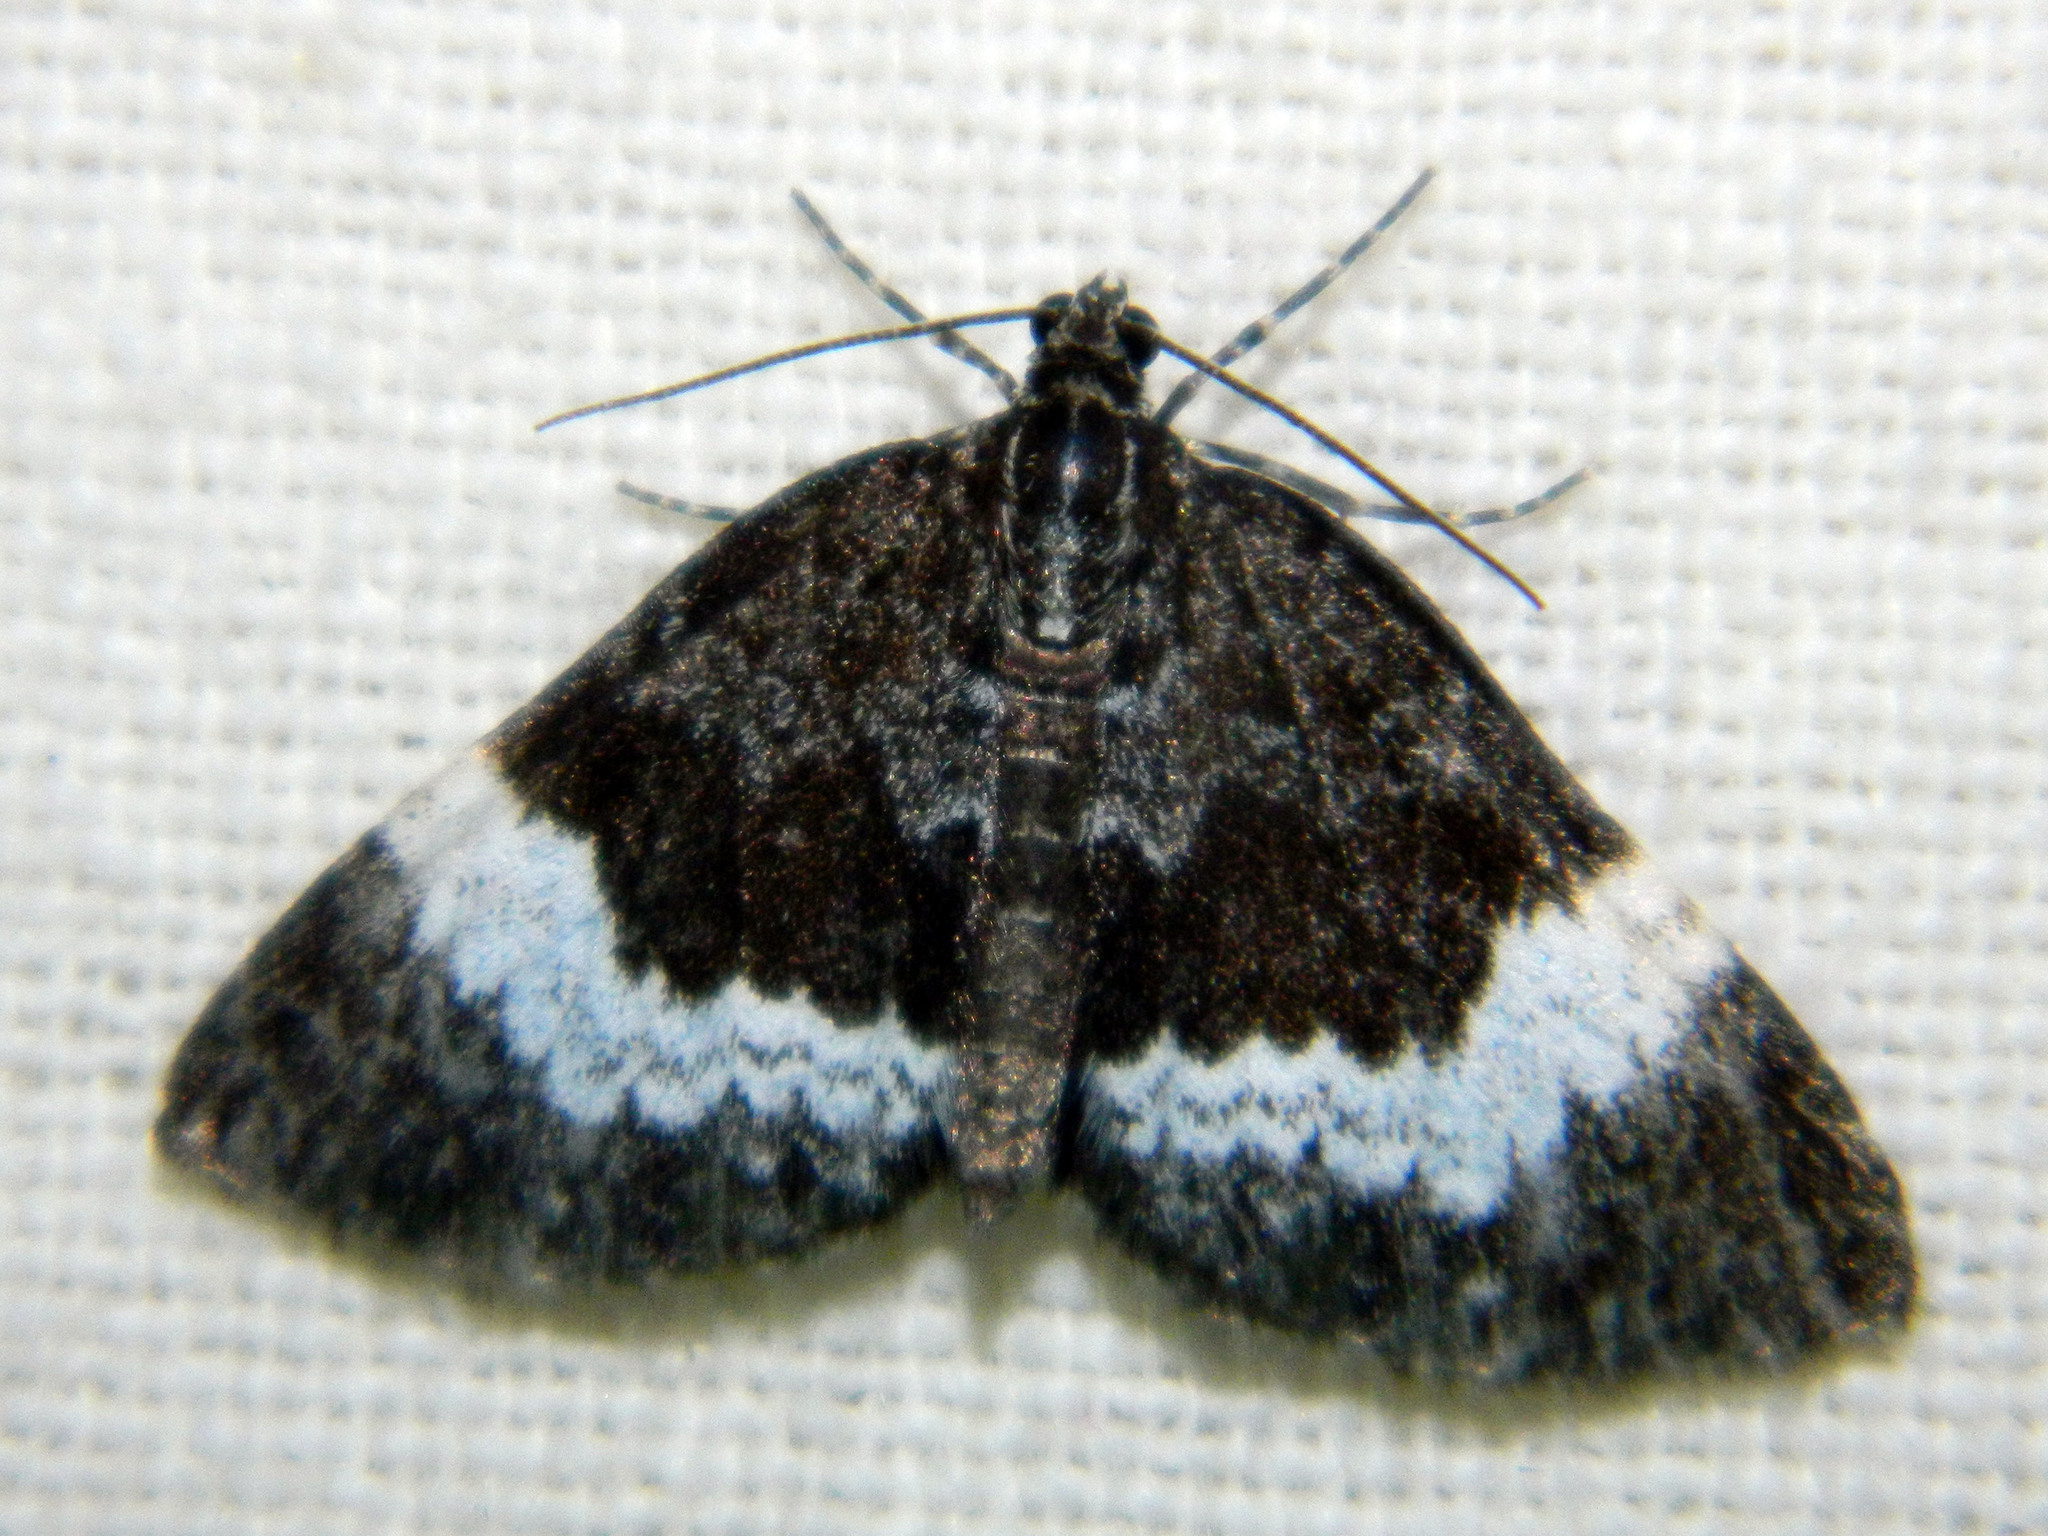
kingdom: Animalia
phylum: Arthropoda
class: Insecta
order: Lepidoptera
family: Geometridae
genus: Spargania
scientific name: Spargania luctuata
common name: White-banded carpet
